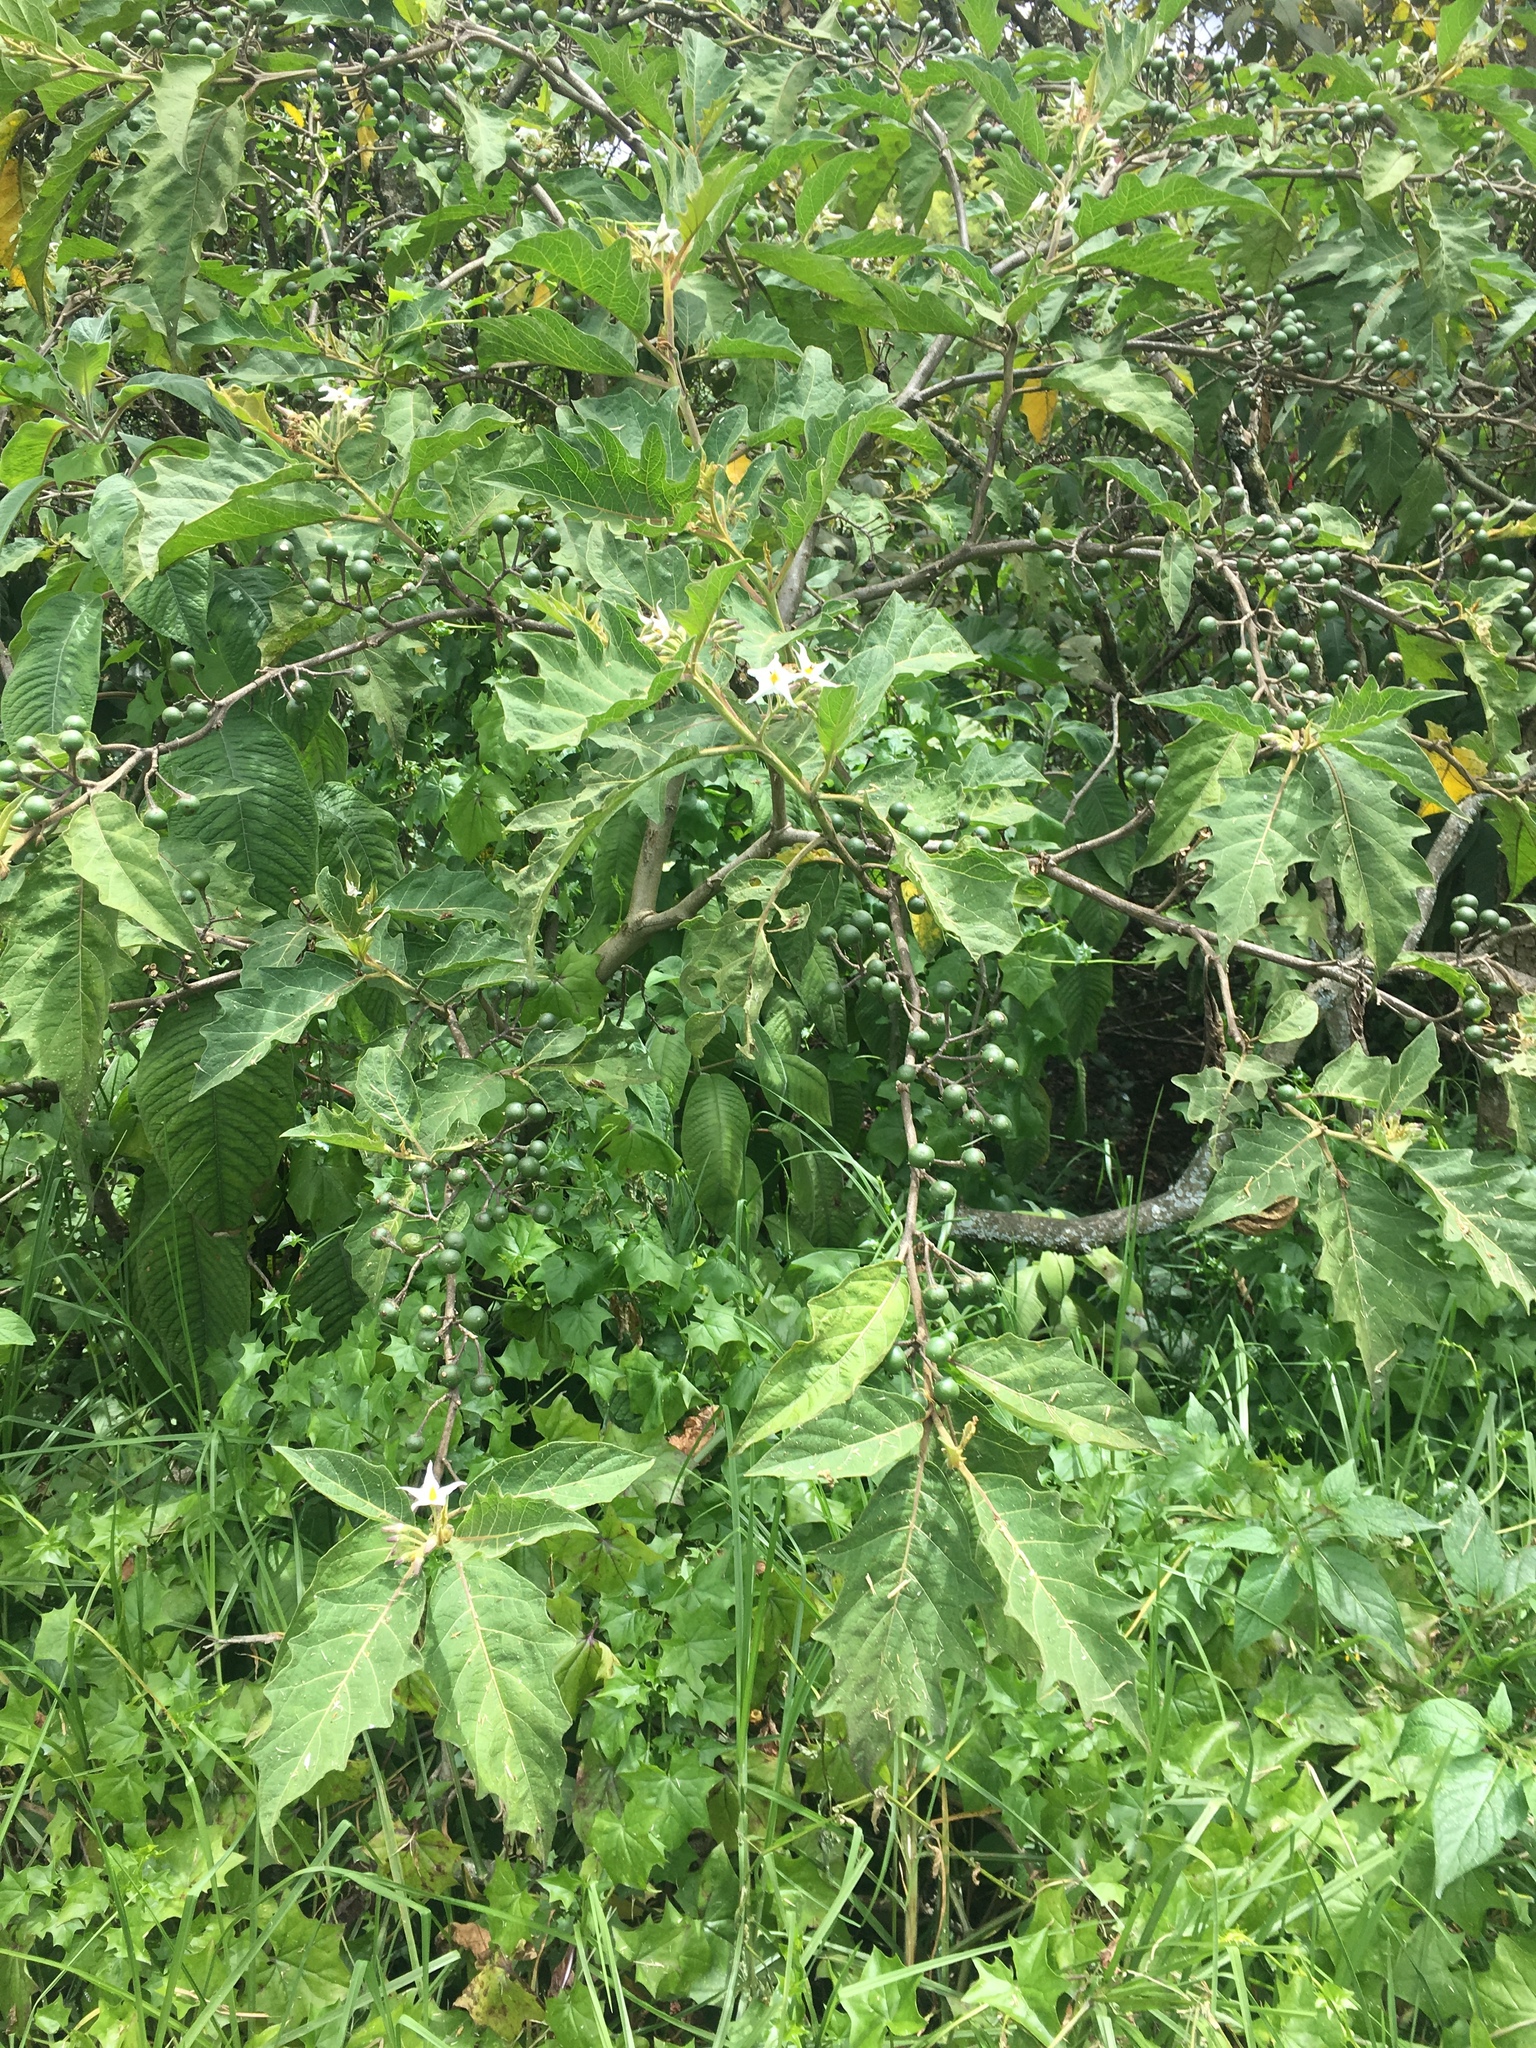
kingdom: Plantae
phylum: Tracheophyta
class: Magnoliopsida
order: Solanales
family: Solanaceae
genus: Solanum
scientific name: Solanum stellatiglandulosum
